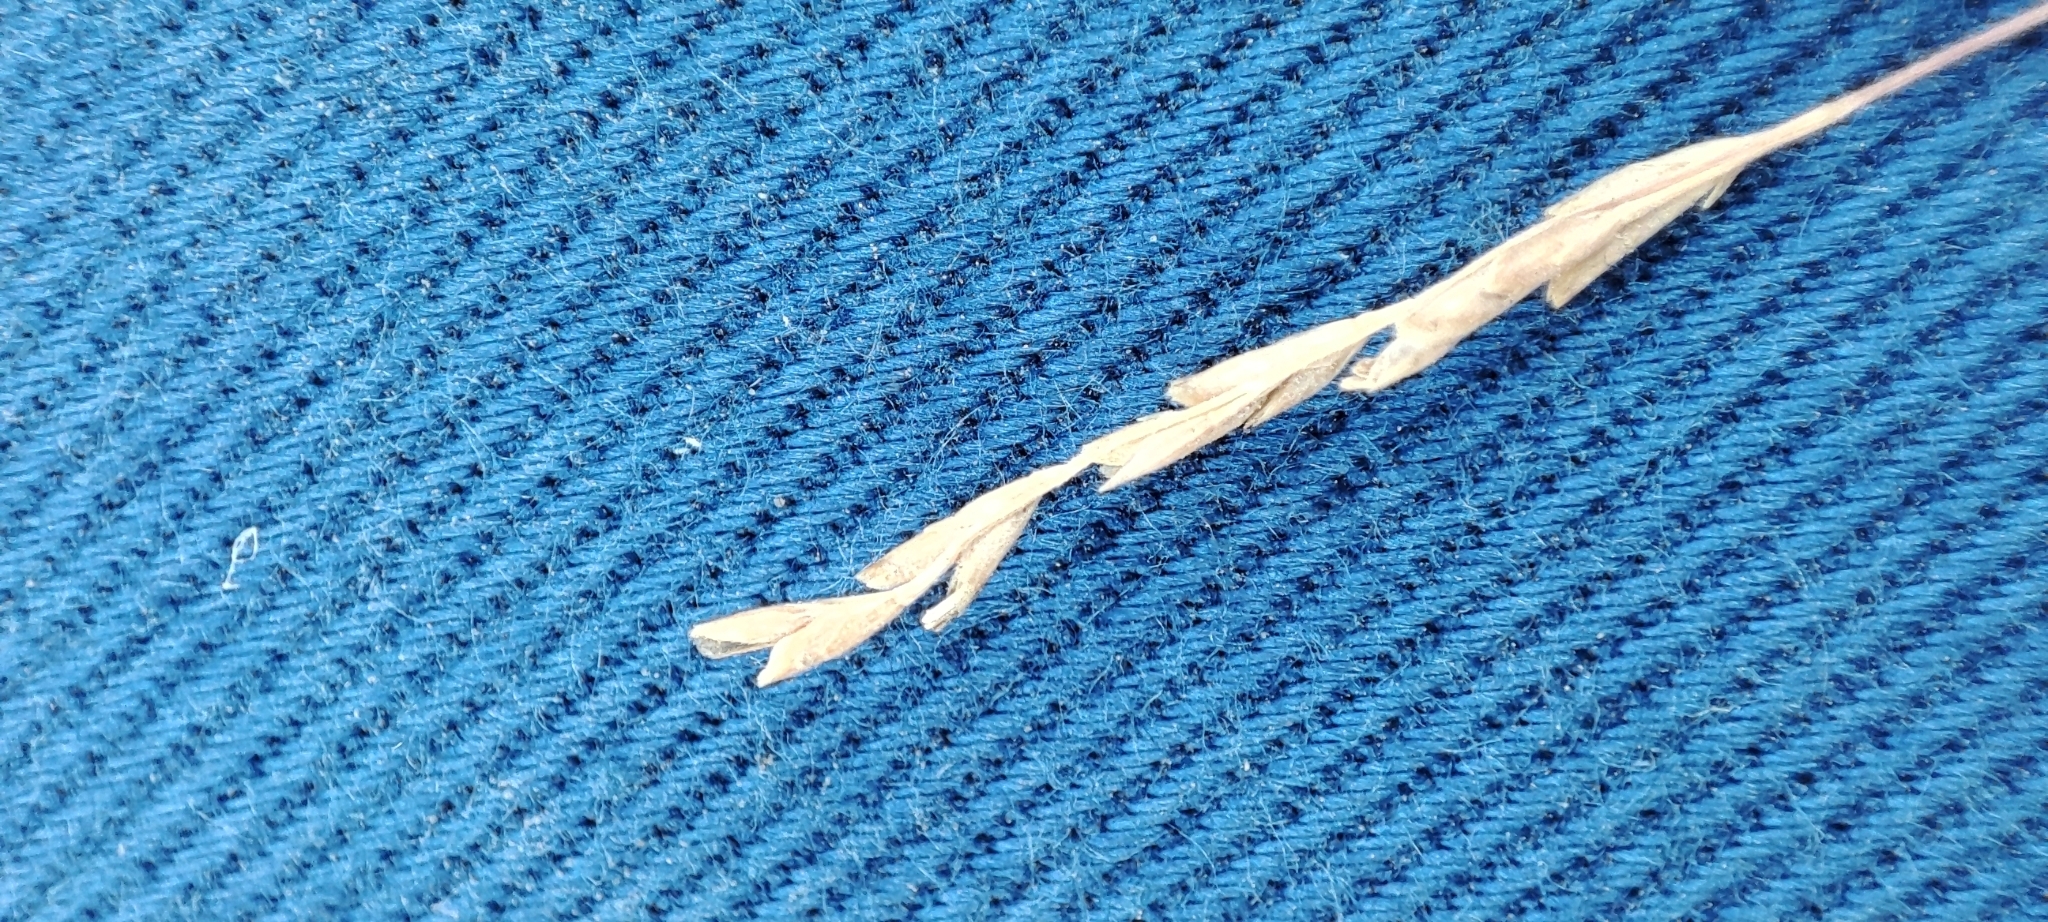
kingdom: Plantae
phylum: Tracheophyta
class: Liliopsida
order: Poales
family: Poaceae
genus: Puccinellia
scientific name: Puccinellia hauptiana
